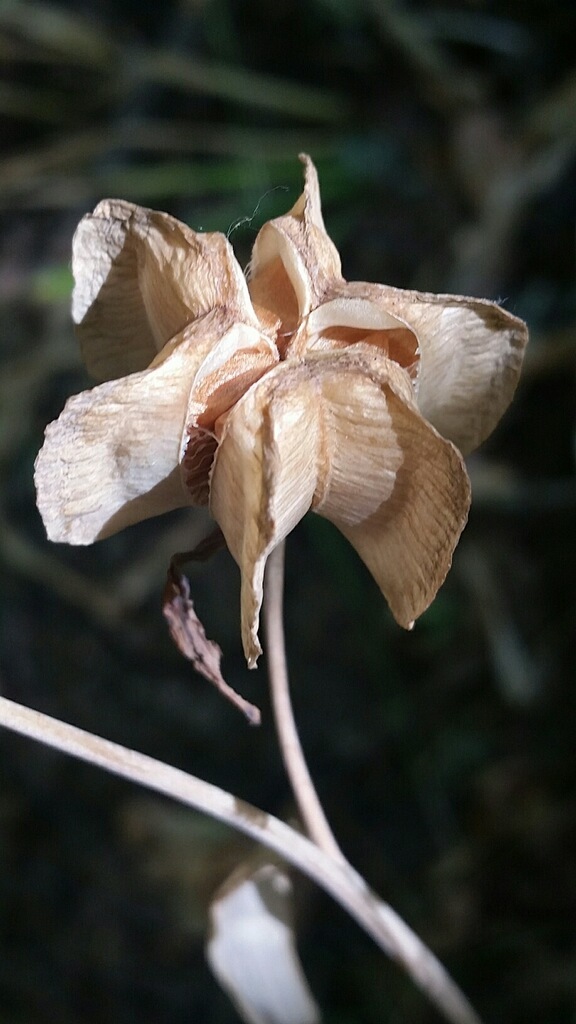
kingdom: Plantae
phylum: Tracheophyta
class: Liliopsida
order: Liliales
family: Liliaceae
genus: Fritillaria
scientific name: Fritillaria affinis
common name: Ojai fritillary
